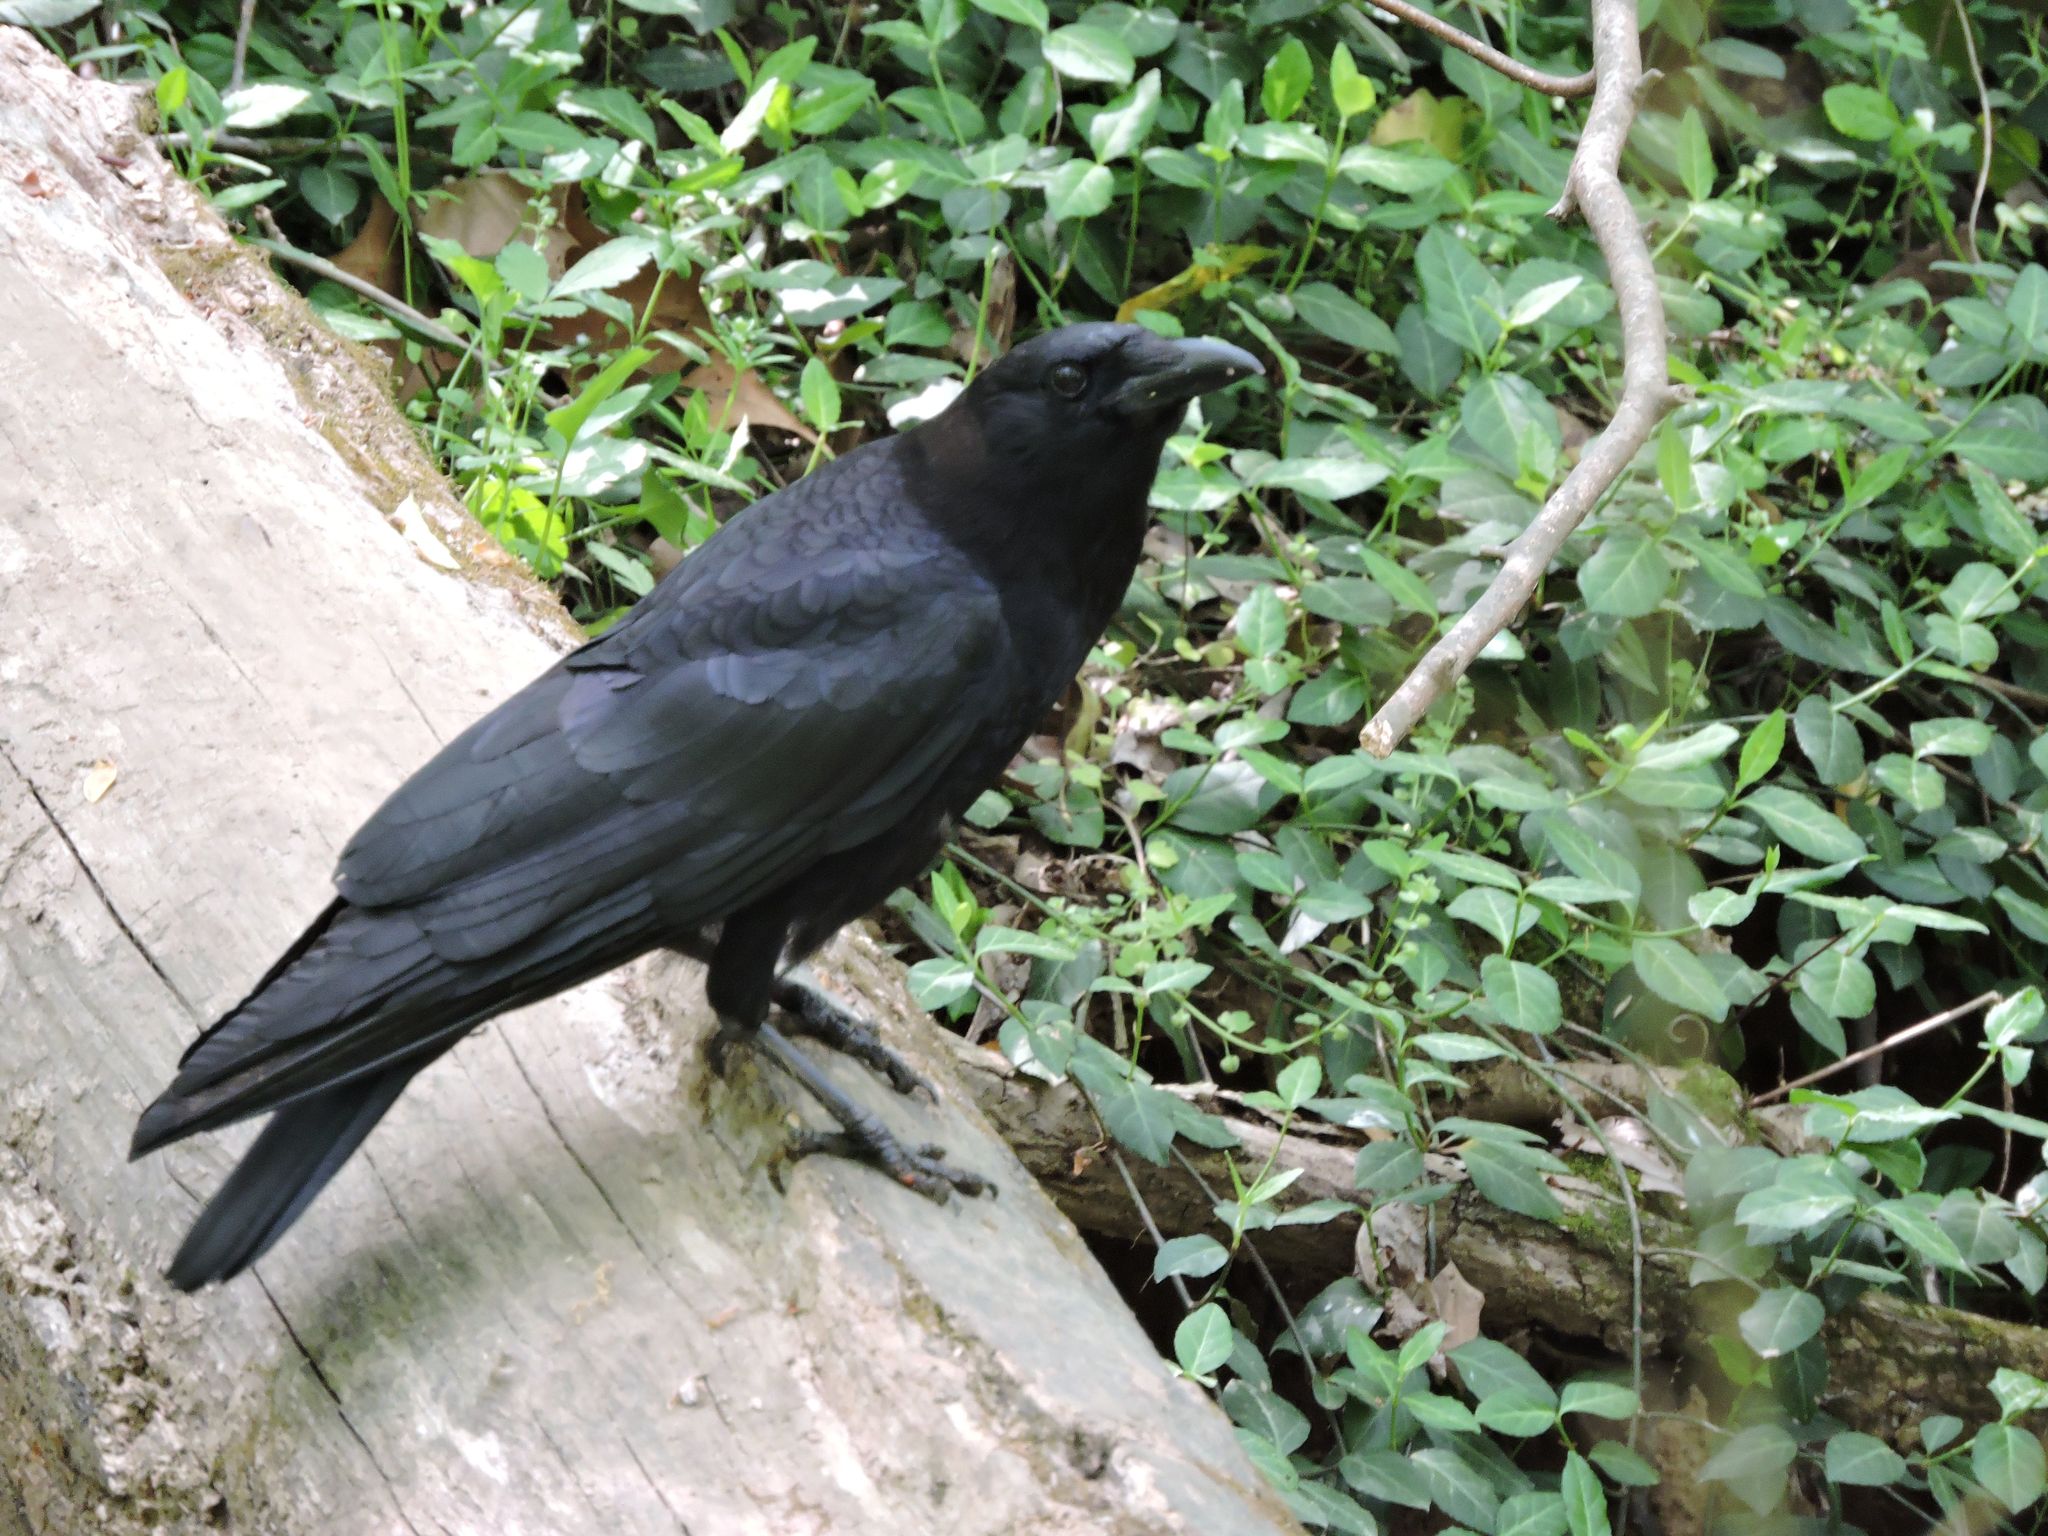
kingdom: Animalia
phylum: Chordata
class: Aves
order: Passeriformes
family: Corvidae
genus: Corvus
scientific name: Corvus
